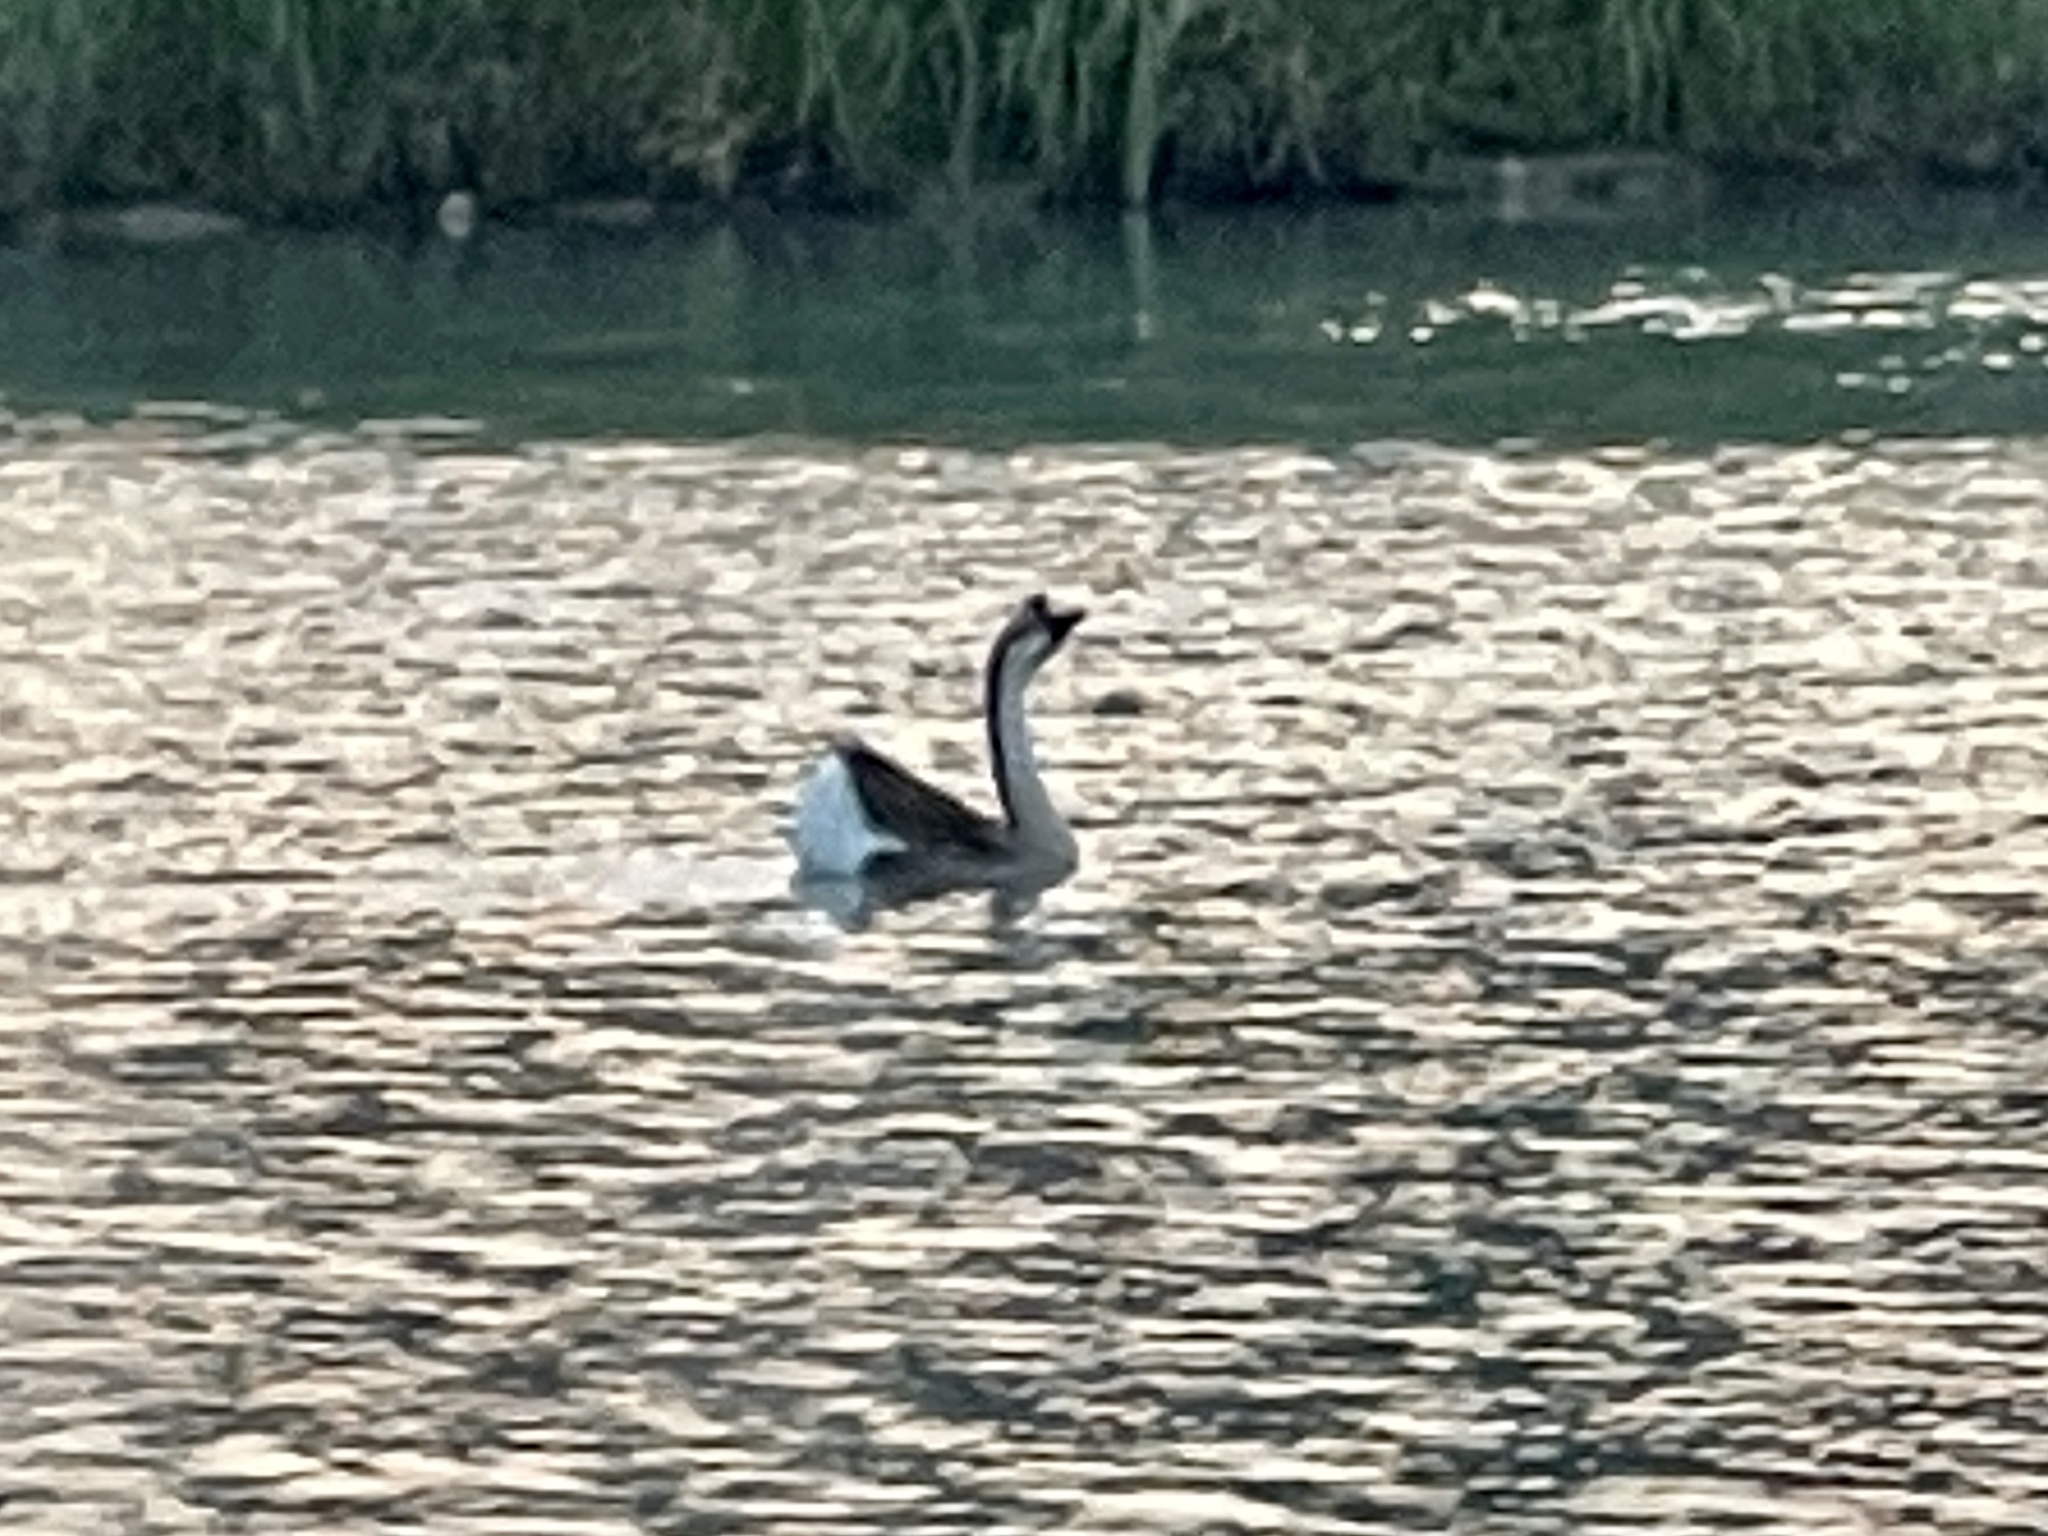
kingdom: Animalia
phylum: Chordata
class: Aves
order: Anseriformes
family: Anatidae
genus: Anser
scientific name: Anser cygnoides
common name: Swan goose
